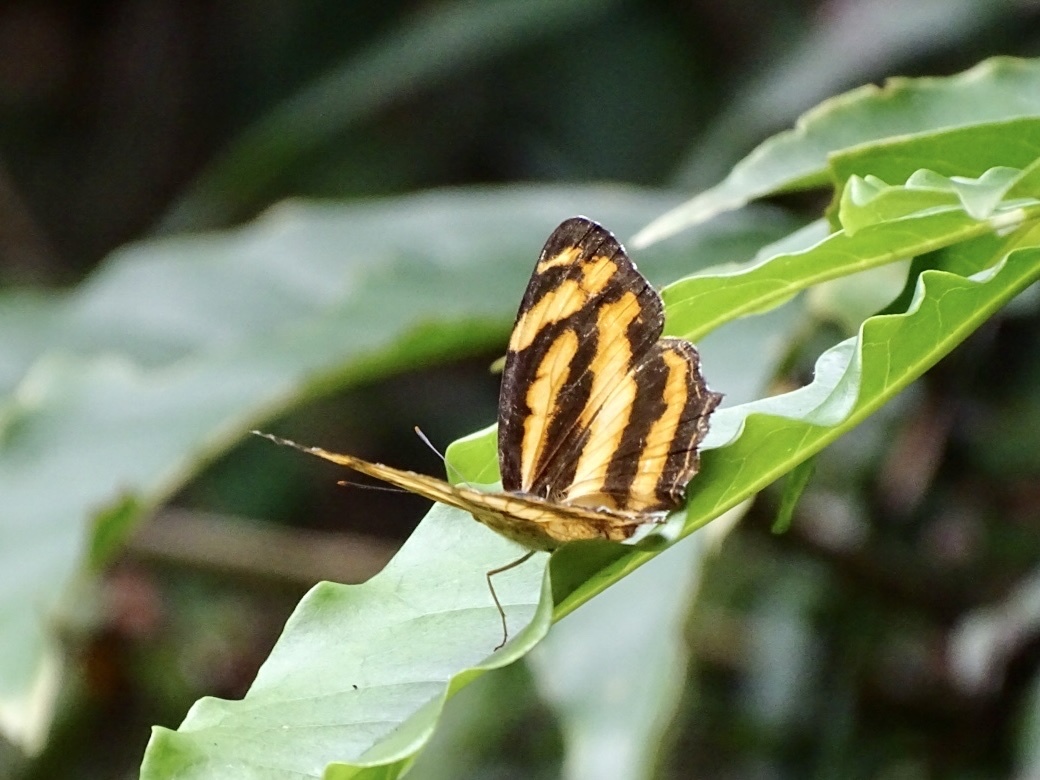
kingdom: Animalia
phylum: Arthropoda
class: Insecta
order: Lepidoptera
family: Nymphalidae
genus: Symbrenthia
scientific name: Symbrenthia hypselis
